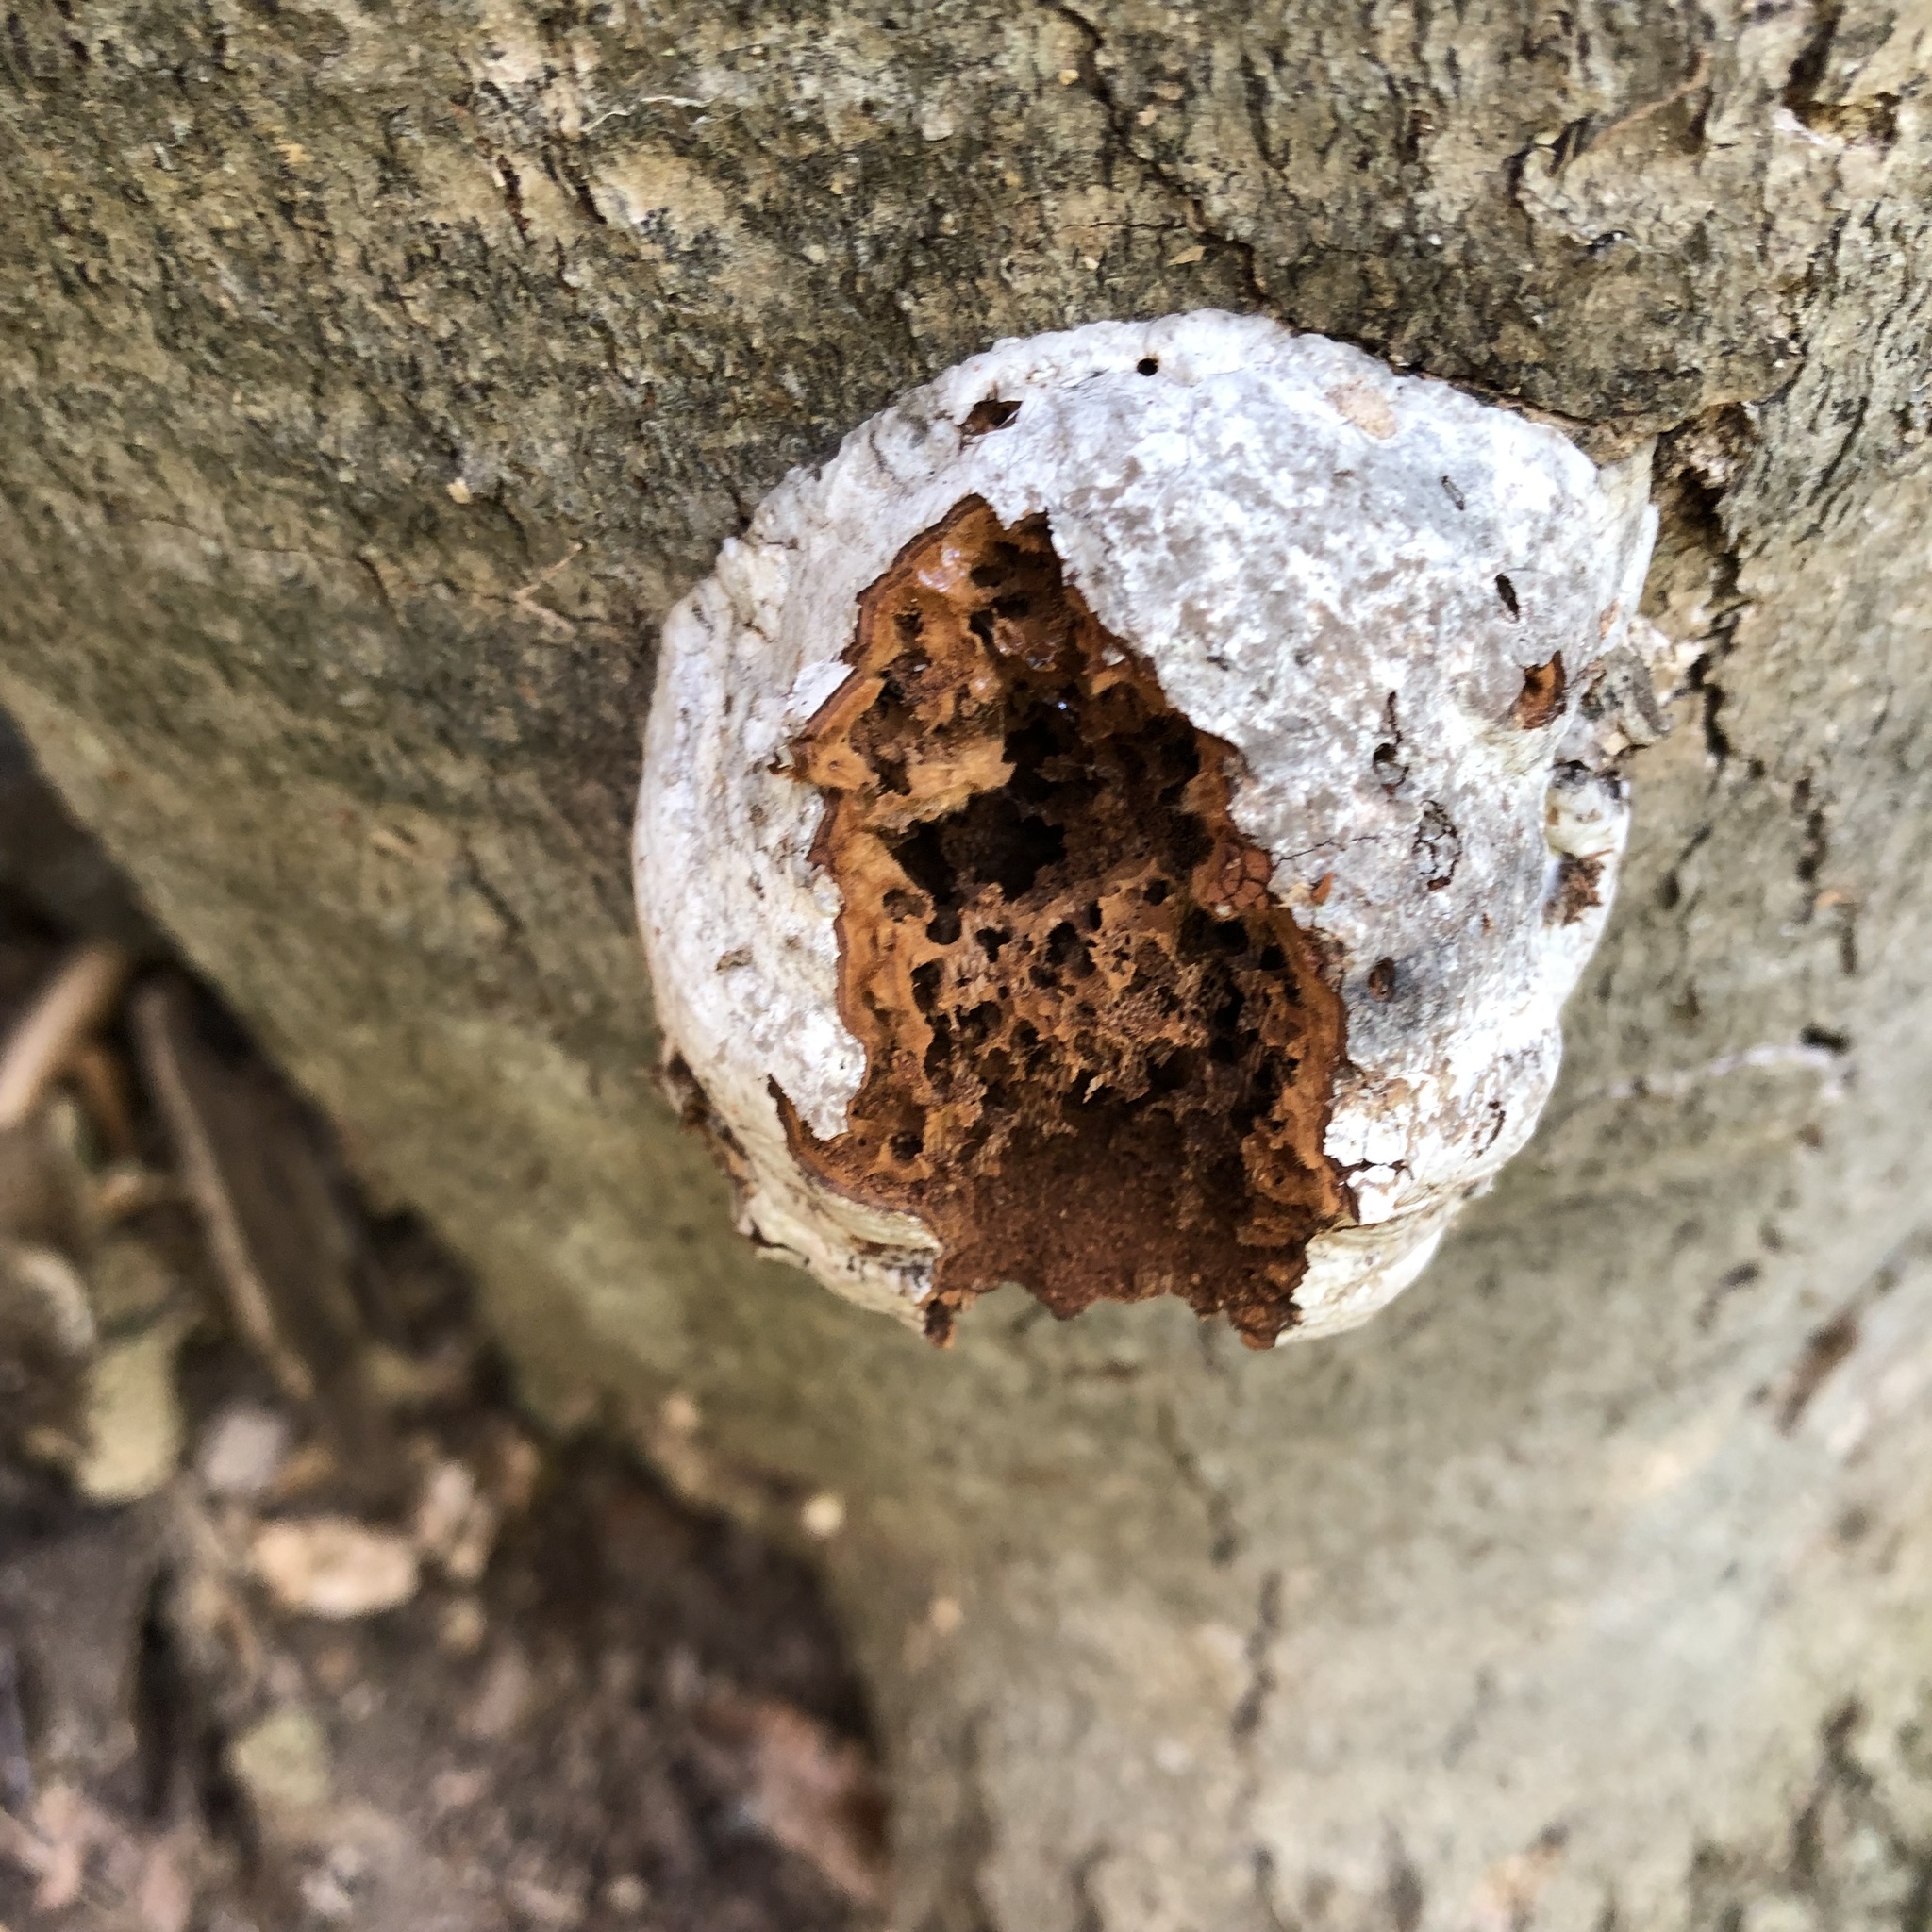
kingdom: Fungi
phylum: Basidiomycota
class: Agaricomycetes
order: Polyporales
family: Polyporaceae
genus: Fomes
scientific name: Fomes fomentarius
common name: Hoof fungus
